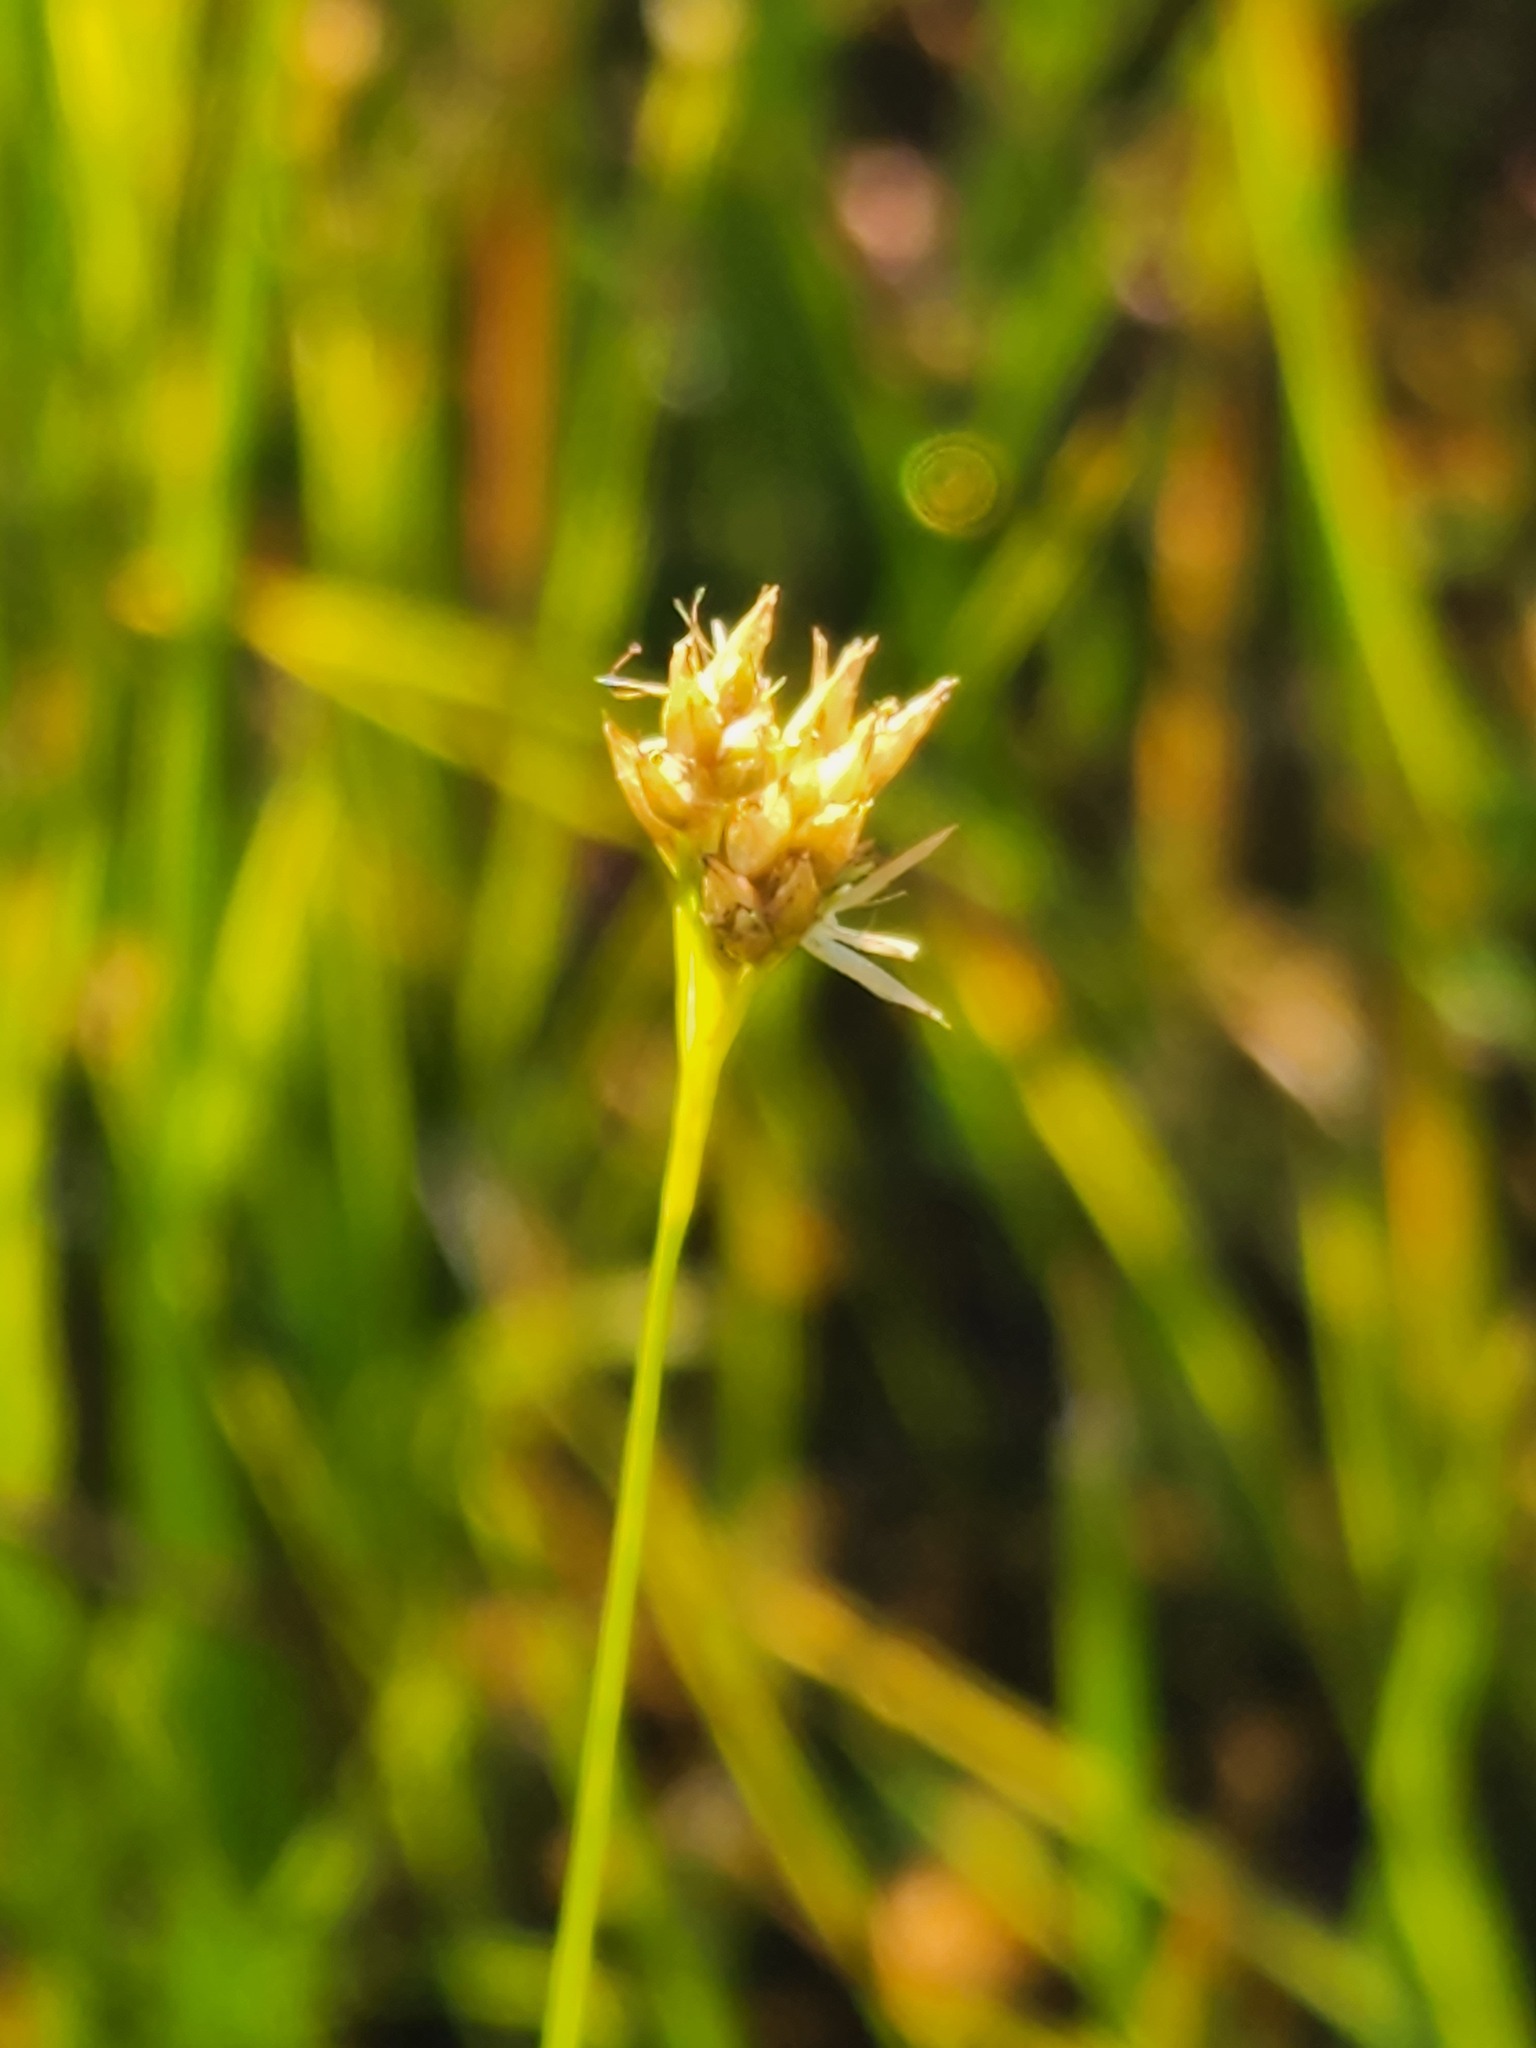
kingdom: Plantae
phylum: Tracheophyta
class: Liliopsida
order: Poales
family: Cyperaceae
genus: Rhynchospora
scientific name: Rhynchospora alba
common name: White beak-sedge
